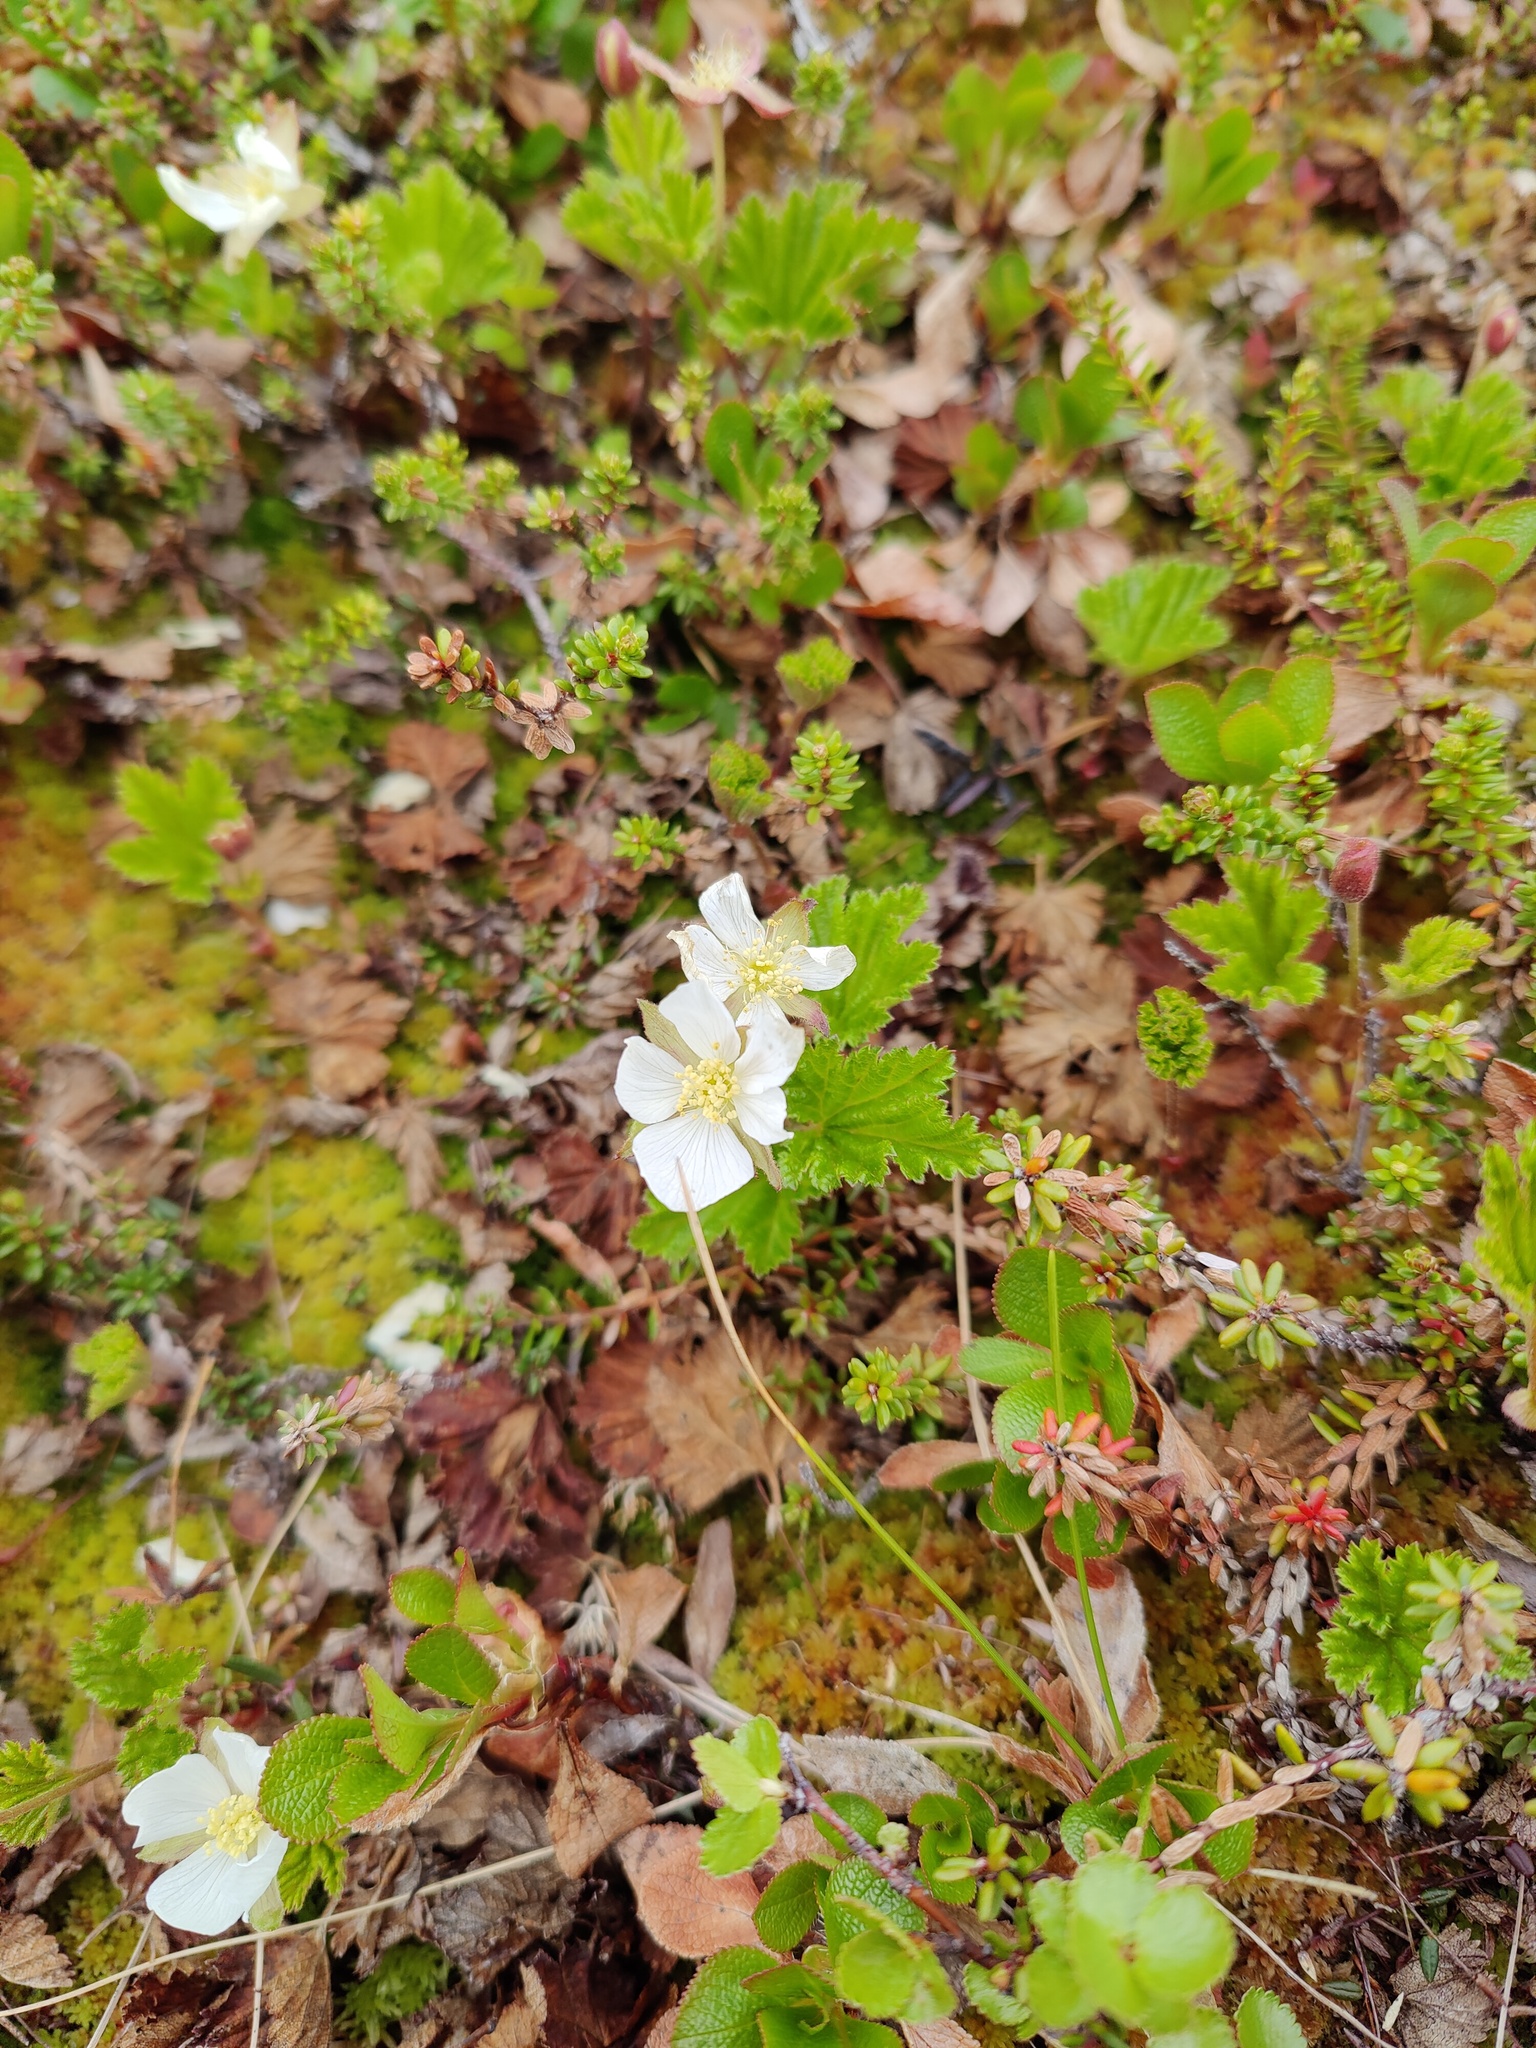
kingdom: Plantae
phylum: Tracheophyta
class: Magnoliopsida
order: Rosales
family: Rosaceae
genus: Rubus
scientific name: Rubus chamaemorus
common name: Cloudberry
